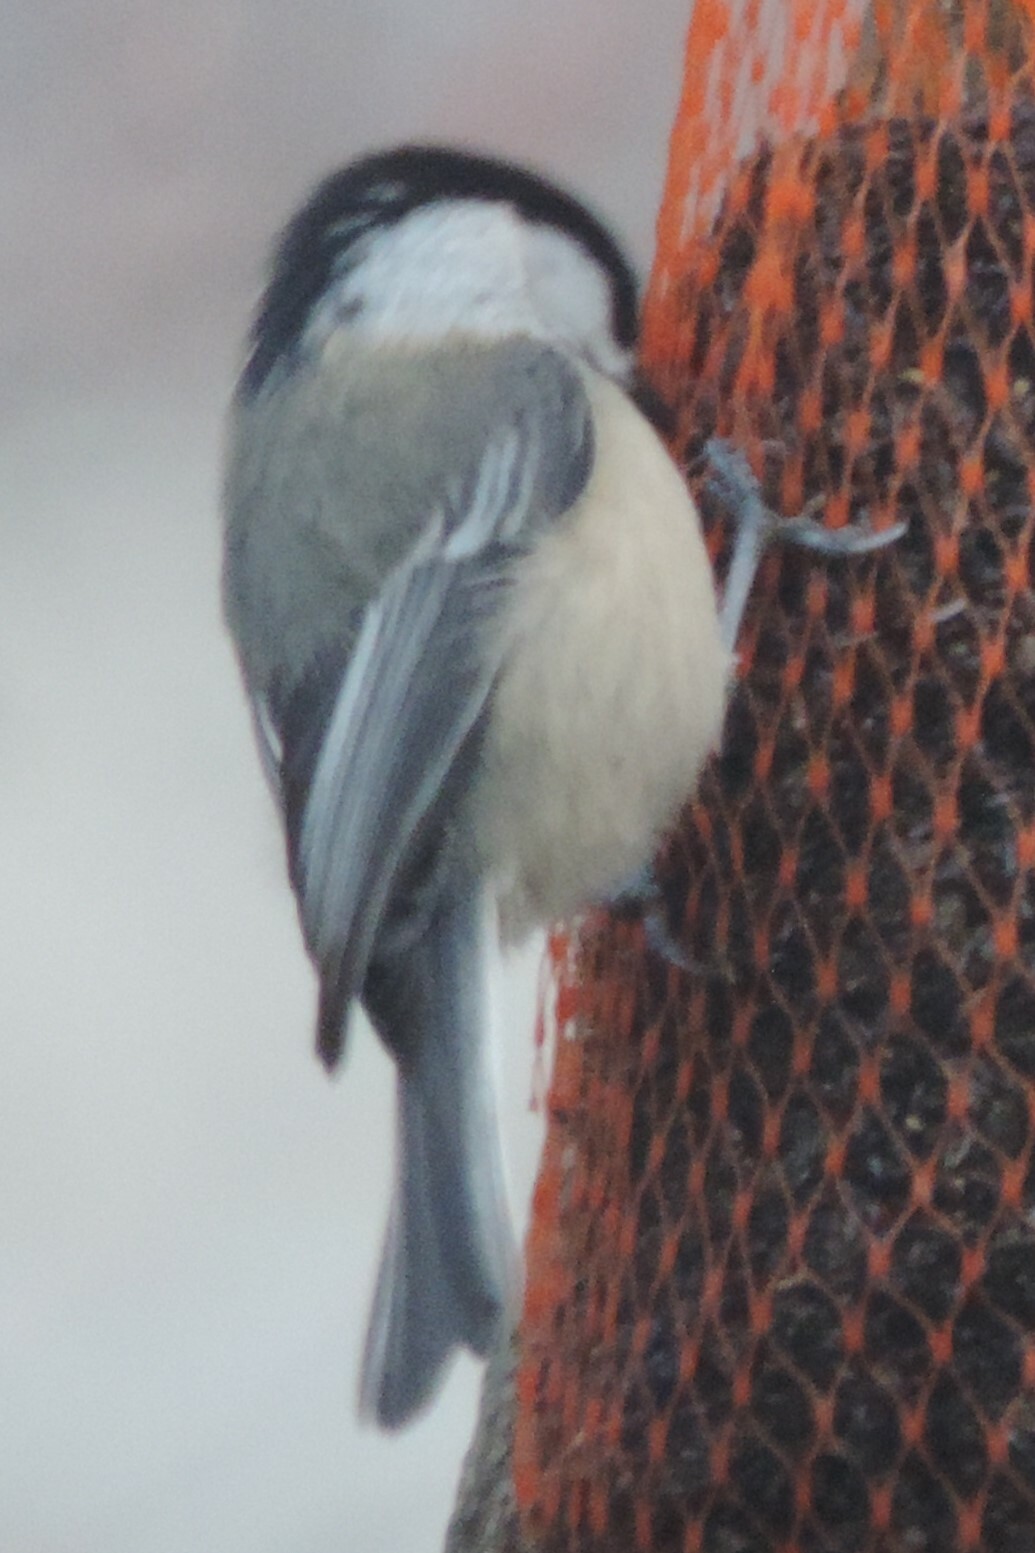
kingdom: Animalia
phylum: Chordata
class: Aves
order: Passeriformes
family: Paridae
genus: Poecile
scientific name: Poecile atricapillus
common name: Black-capped chickadee
